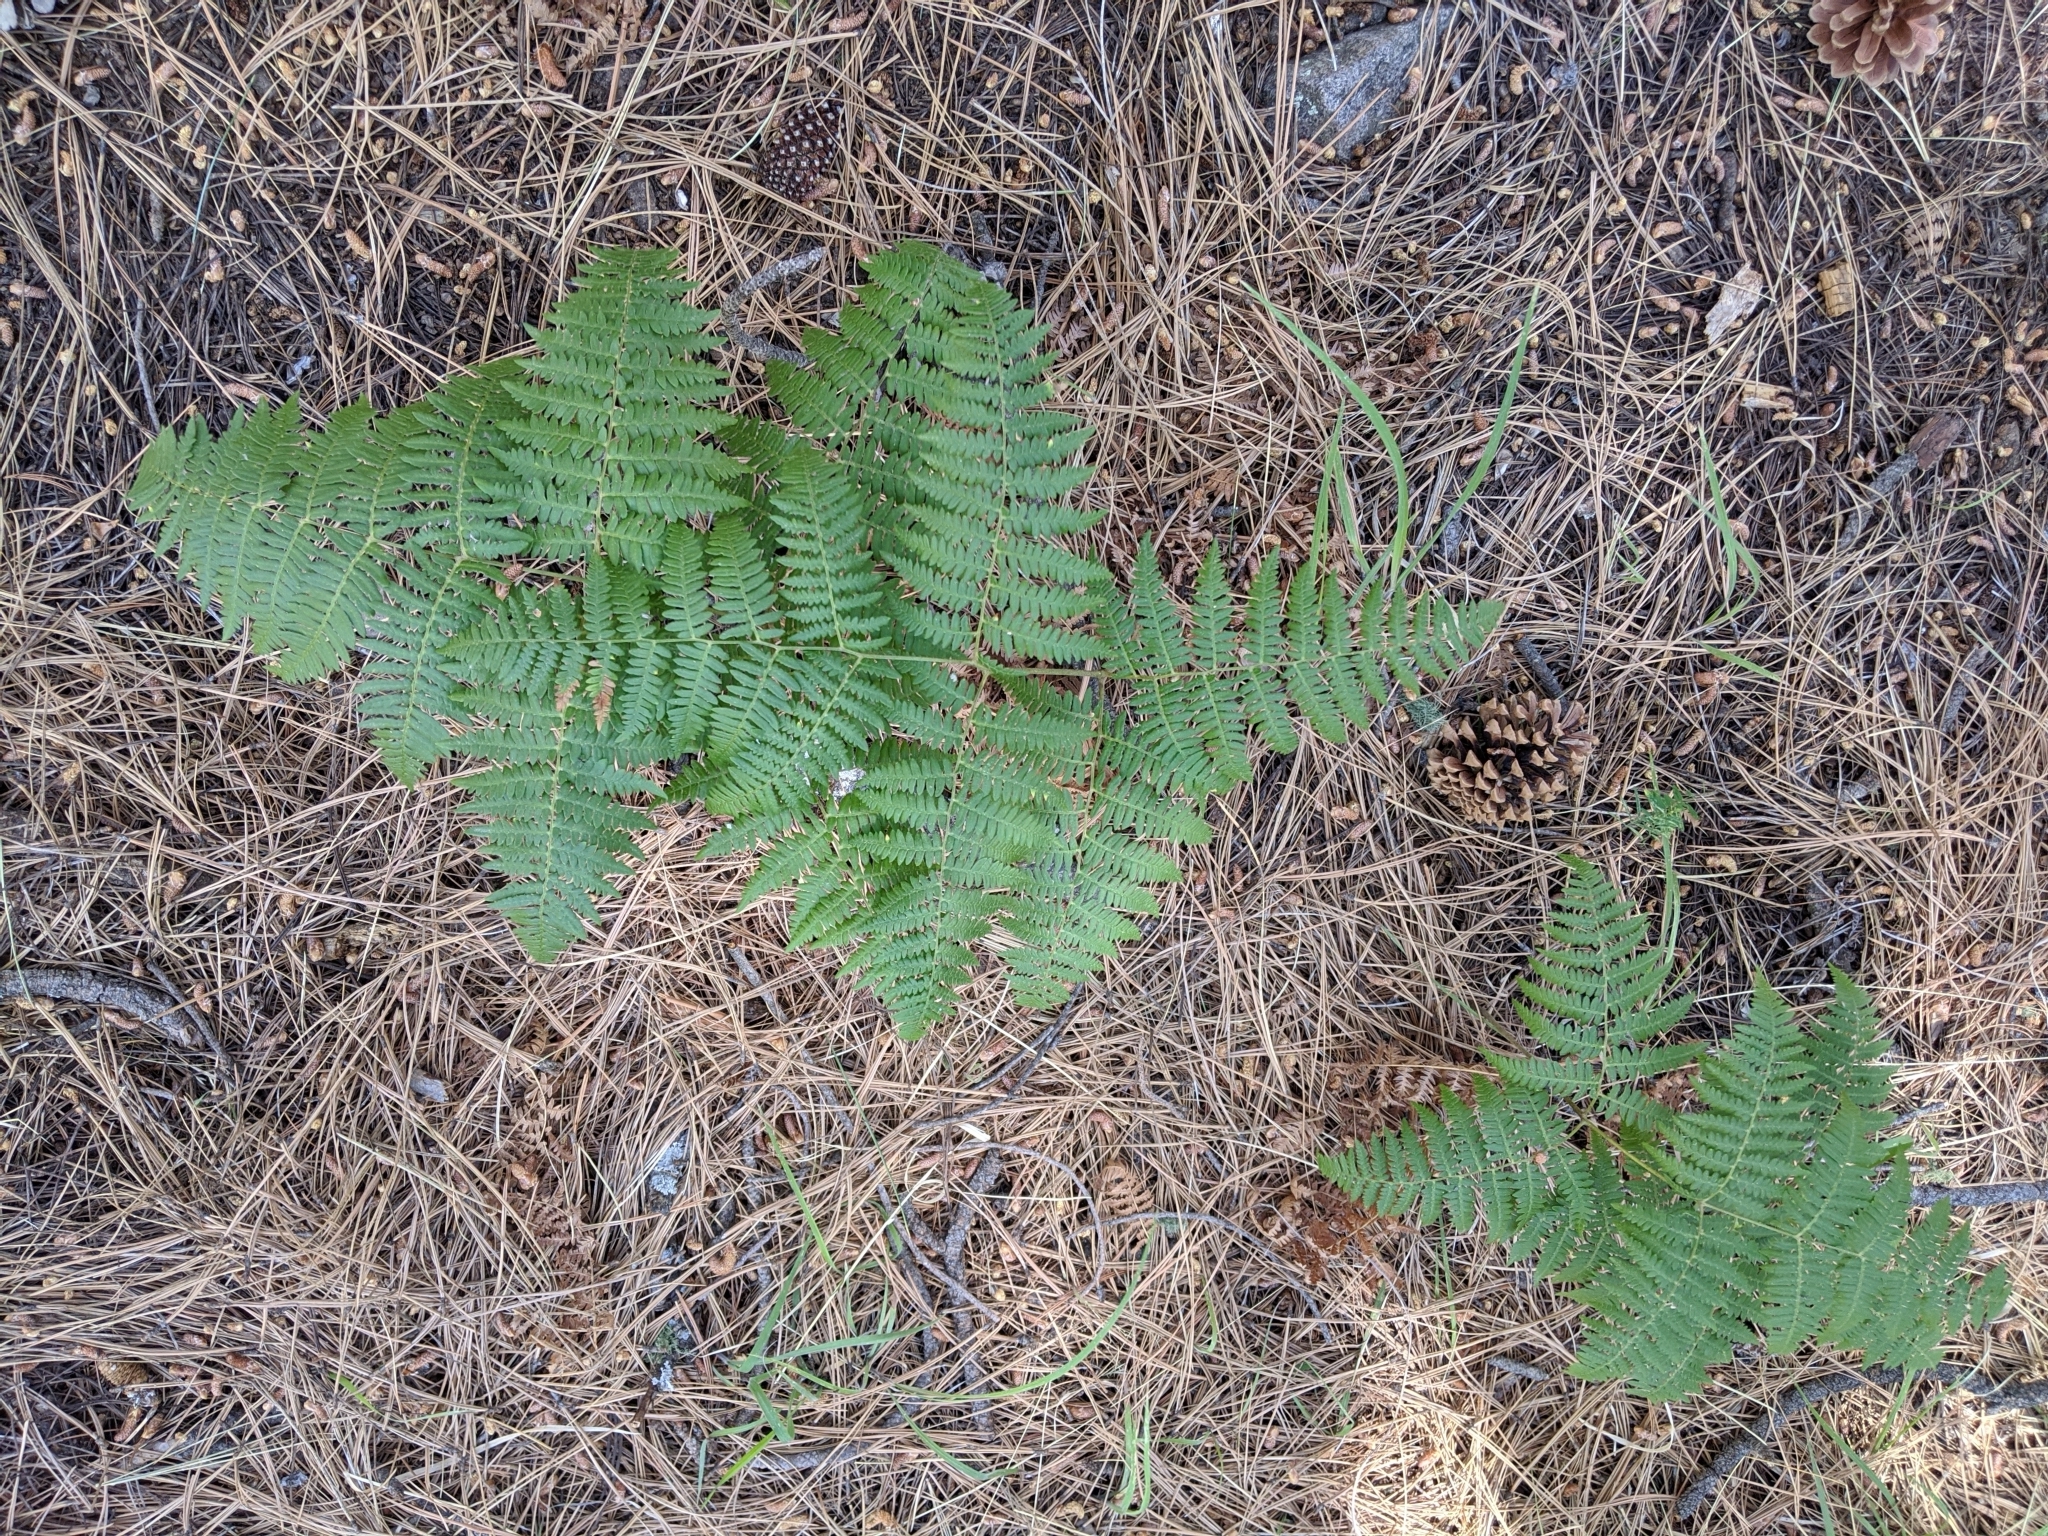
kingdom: Plantae
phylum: Tracheophyta
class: Polypodiopsida
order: Polypodiales
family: Dennstaedtiaceae
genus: Pteridium
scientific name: Pteridium aquilinum
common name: Bracken
